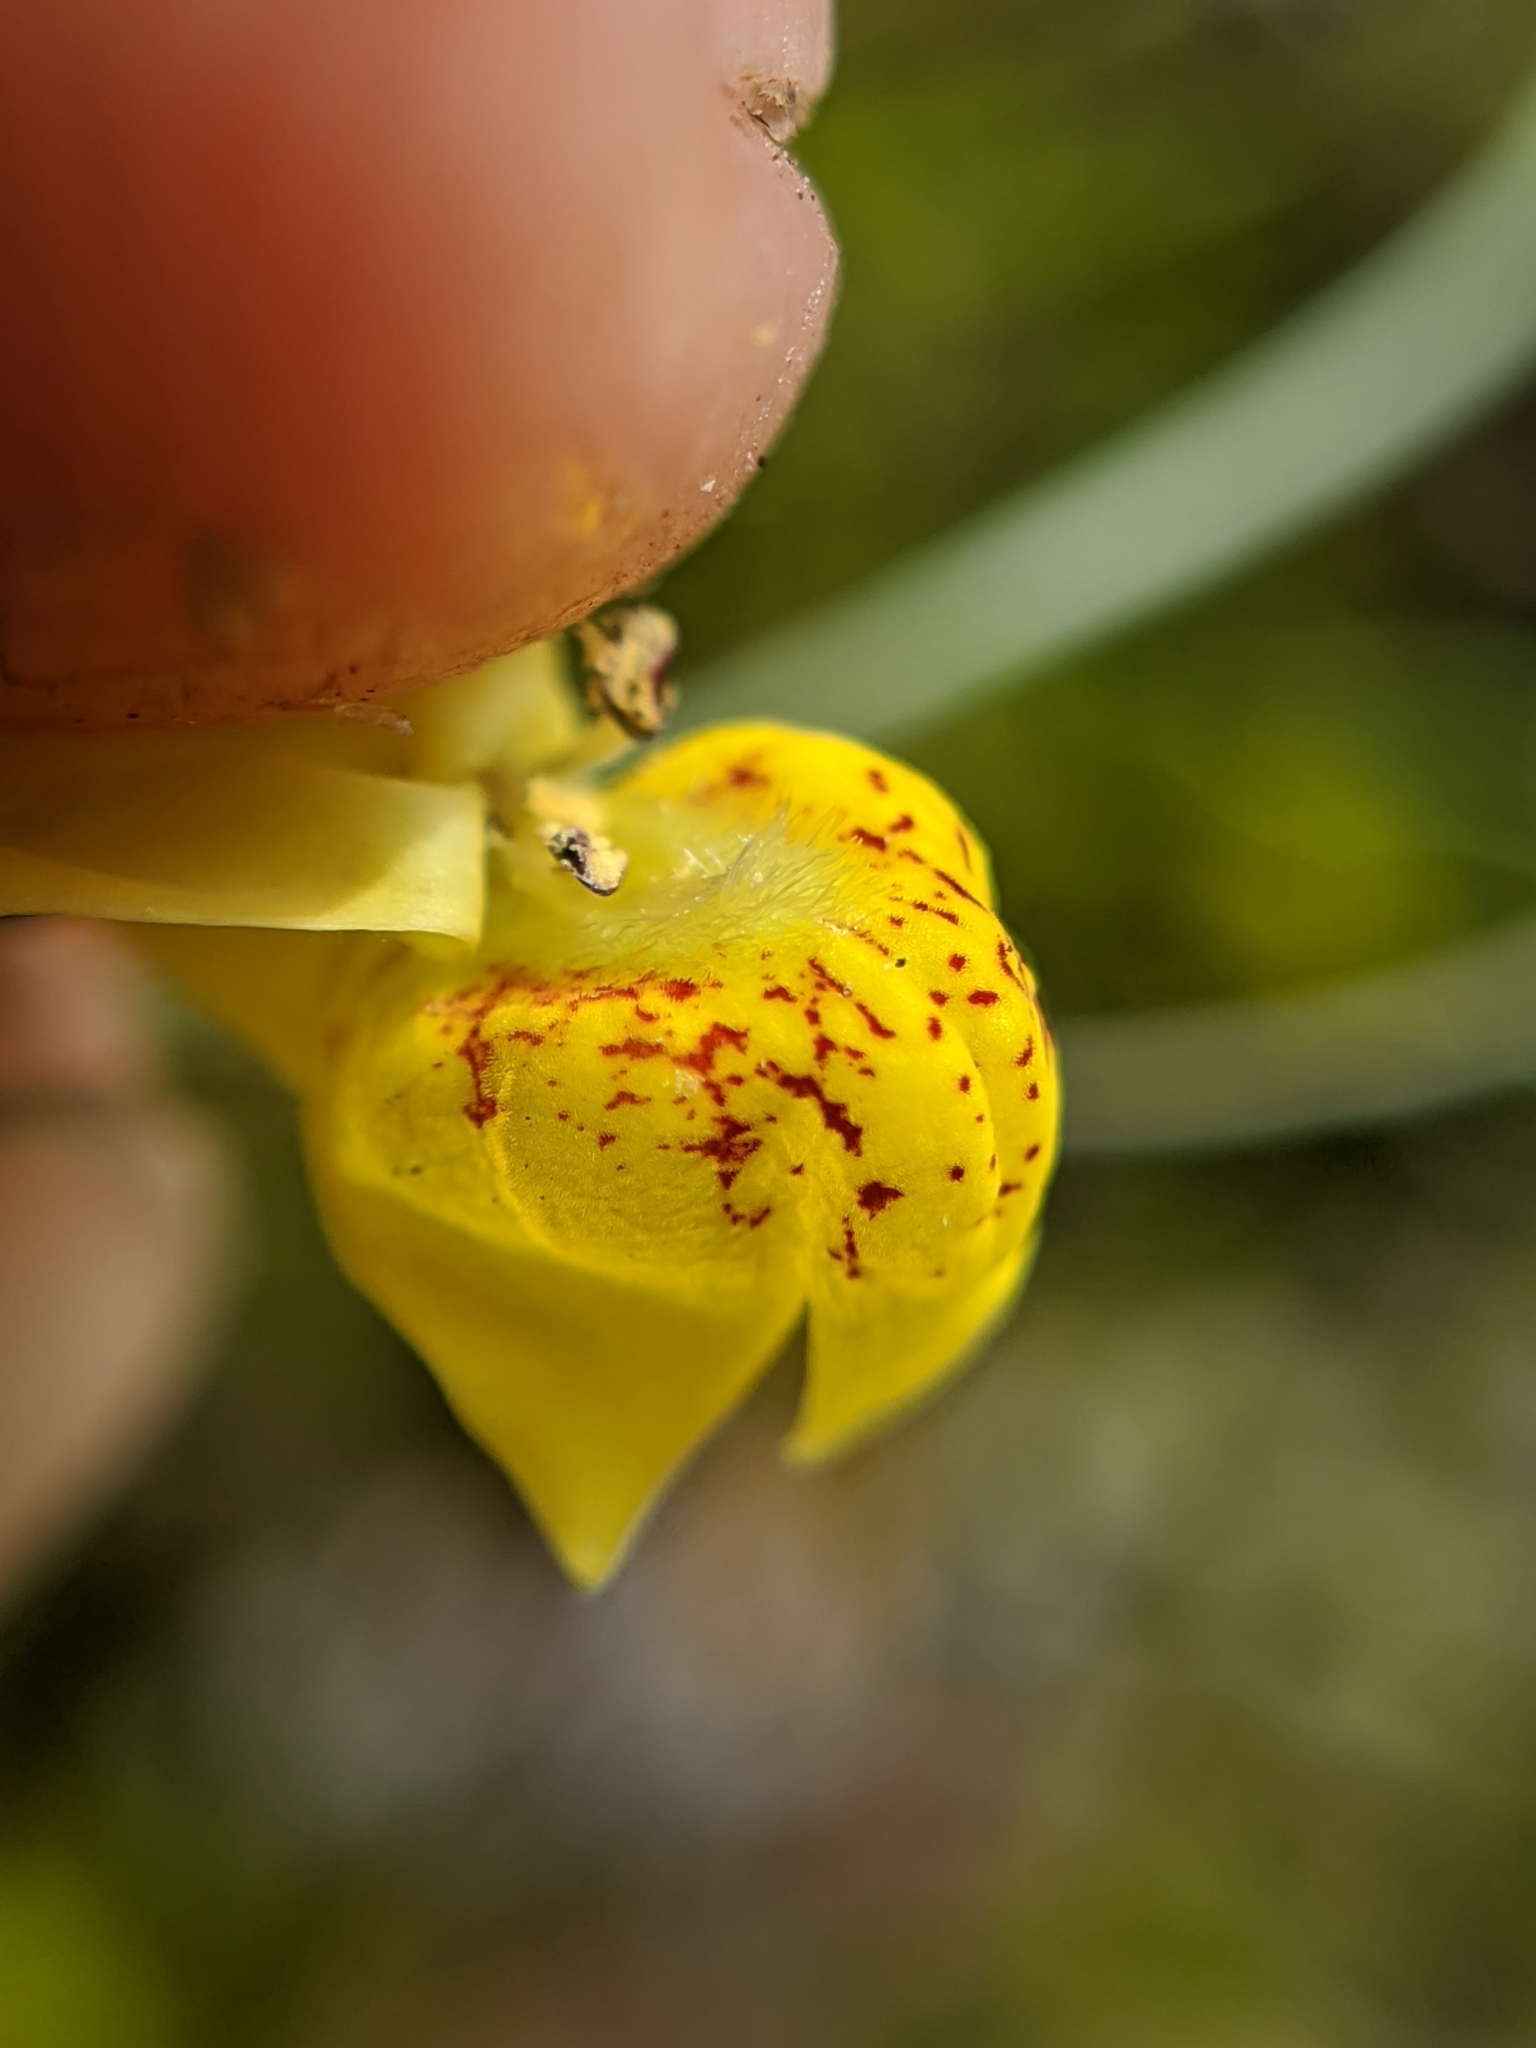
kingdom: Plantae
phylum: Tracheophyta
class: Magnoliopsida
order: Lamiales
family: Plantaginaceae
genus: Neogaerrhinum
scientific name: Neogaerrhinum filipes
